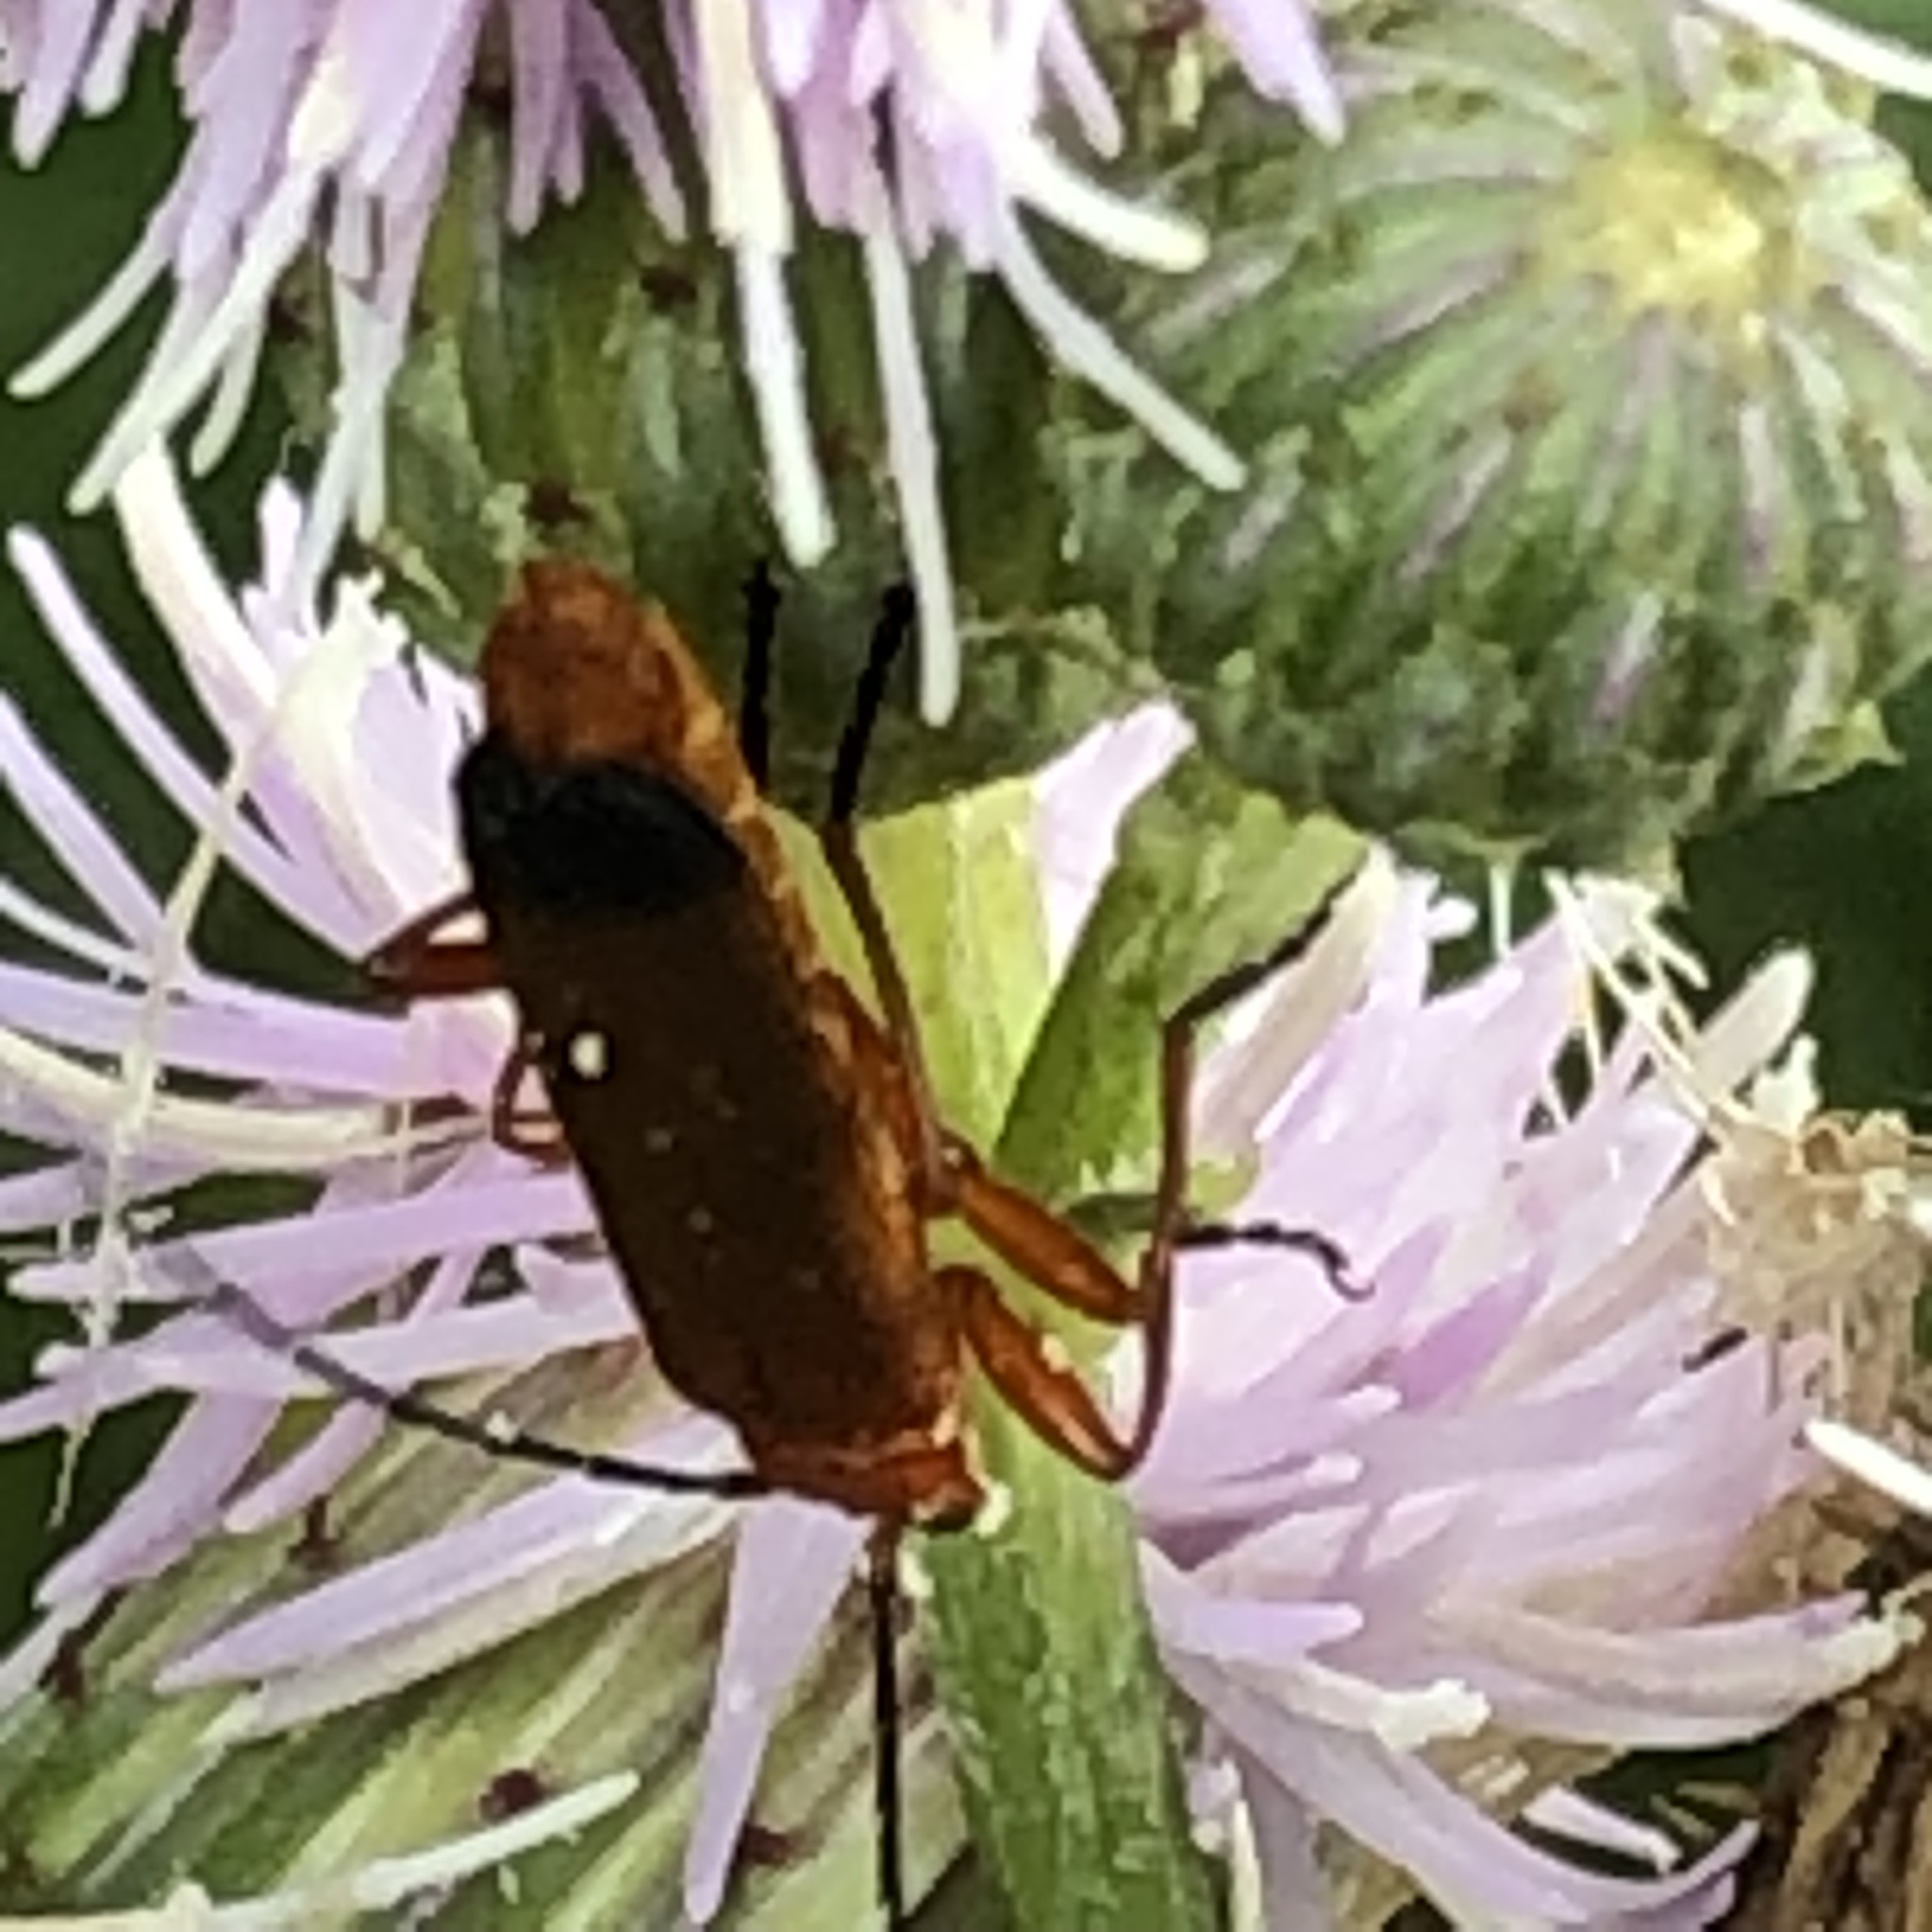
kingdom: Animalia
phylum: Arthropoda
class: Insecta
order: Coleoptera
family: Cantharidae
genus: Rhagonycha
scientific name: Rhagonycha fulva
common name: Common red soldier beetle
